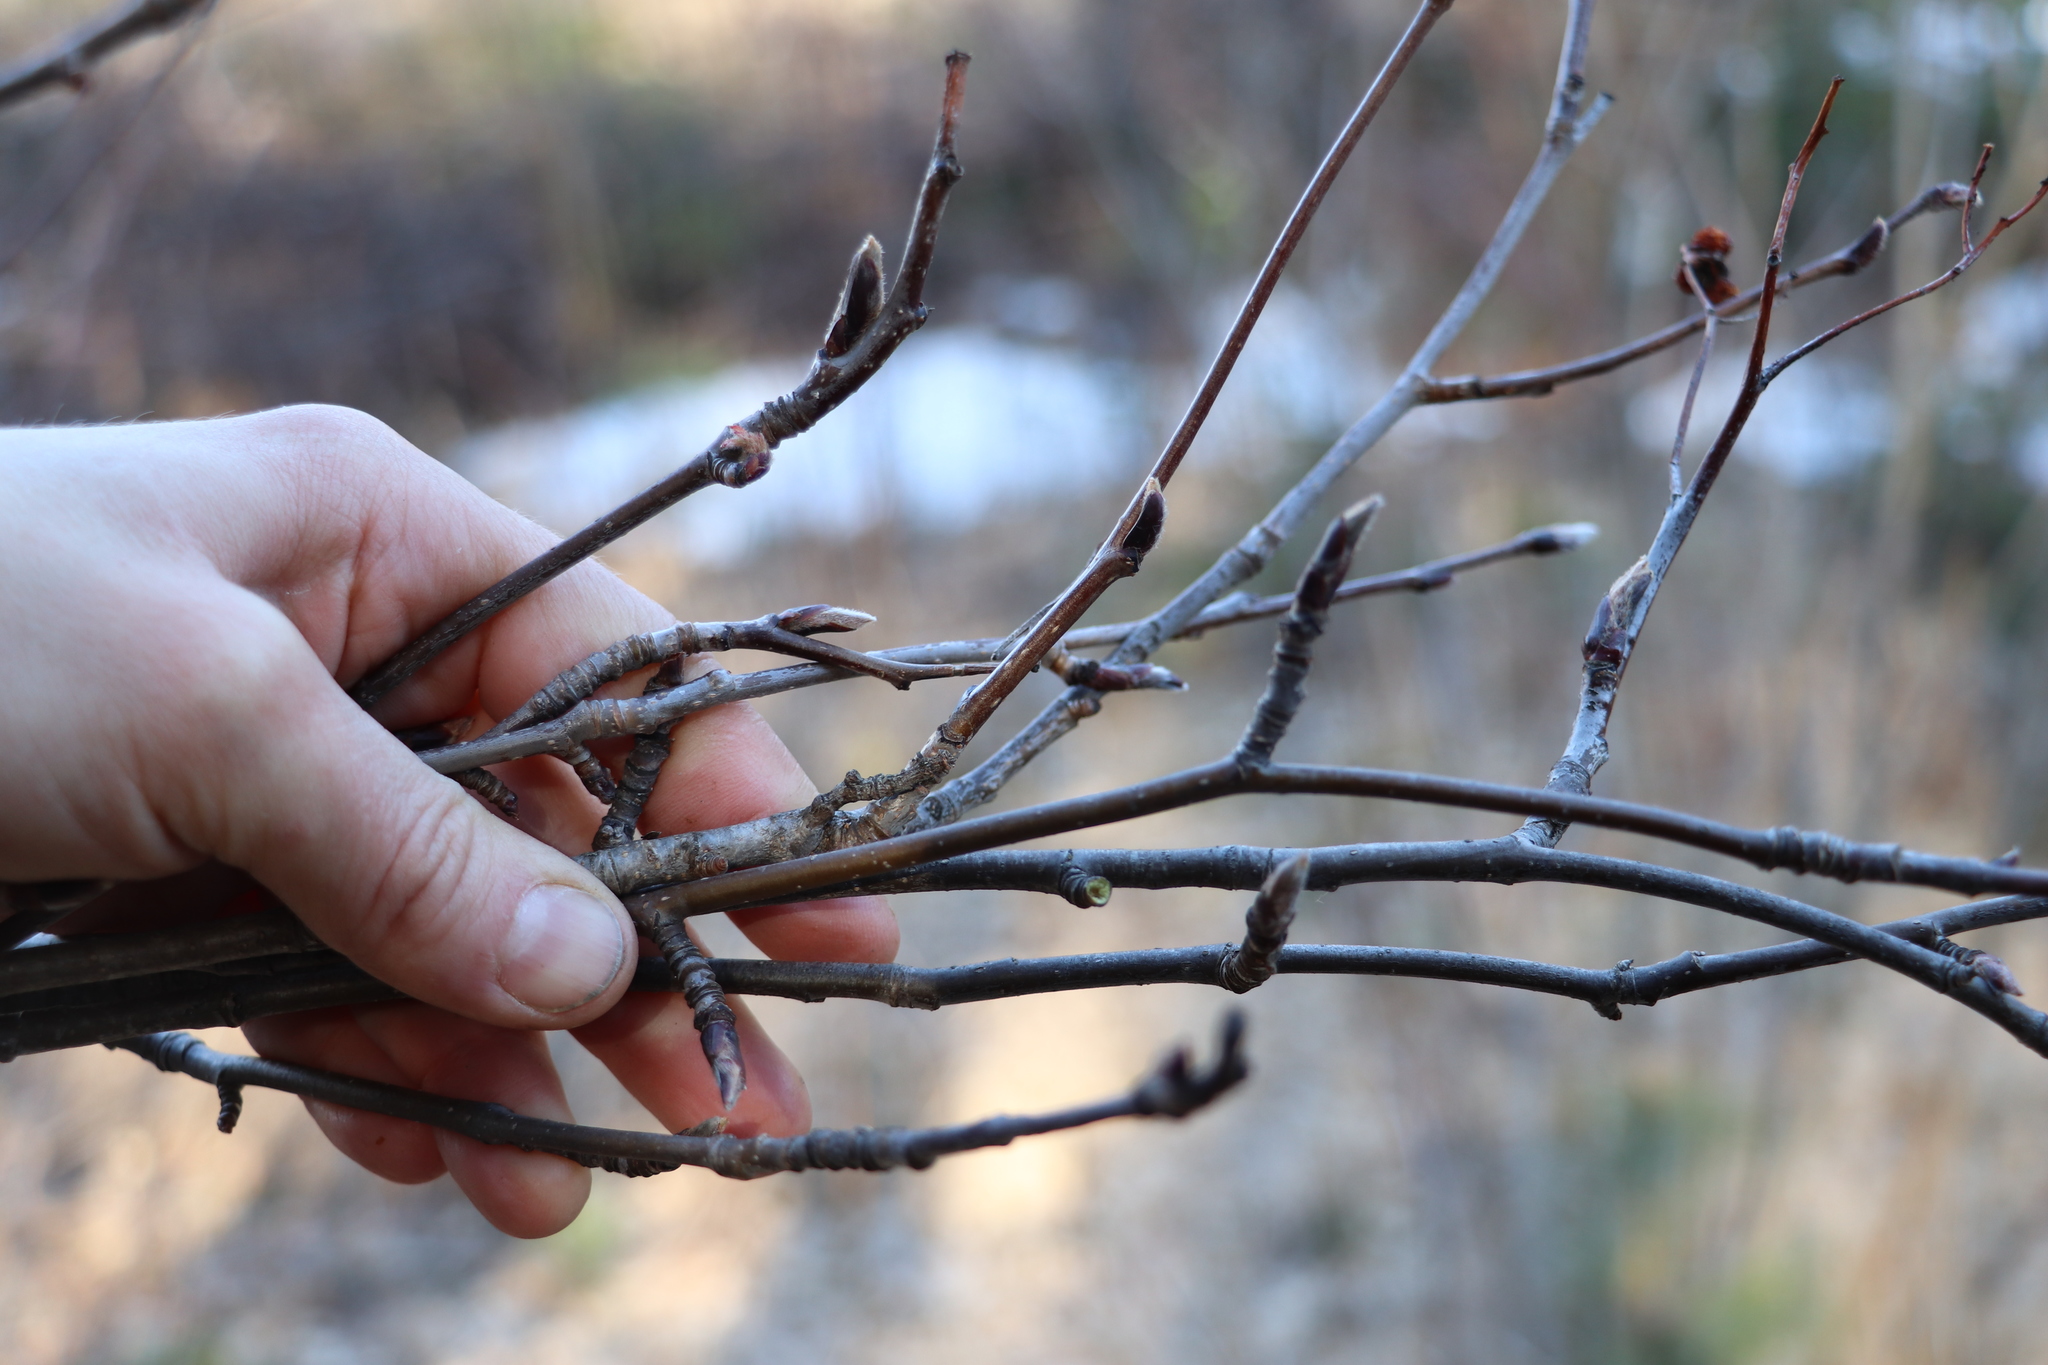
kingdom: Plantae
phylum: Tracheophyta
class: Magnoliopsida
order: Rosales
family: Rosaceae
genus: Sorbus
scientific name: Sorbus aucuparia
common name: Rowan
